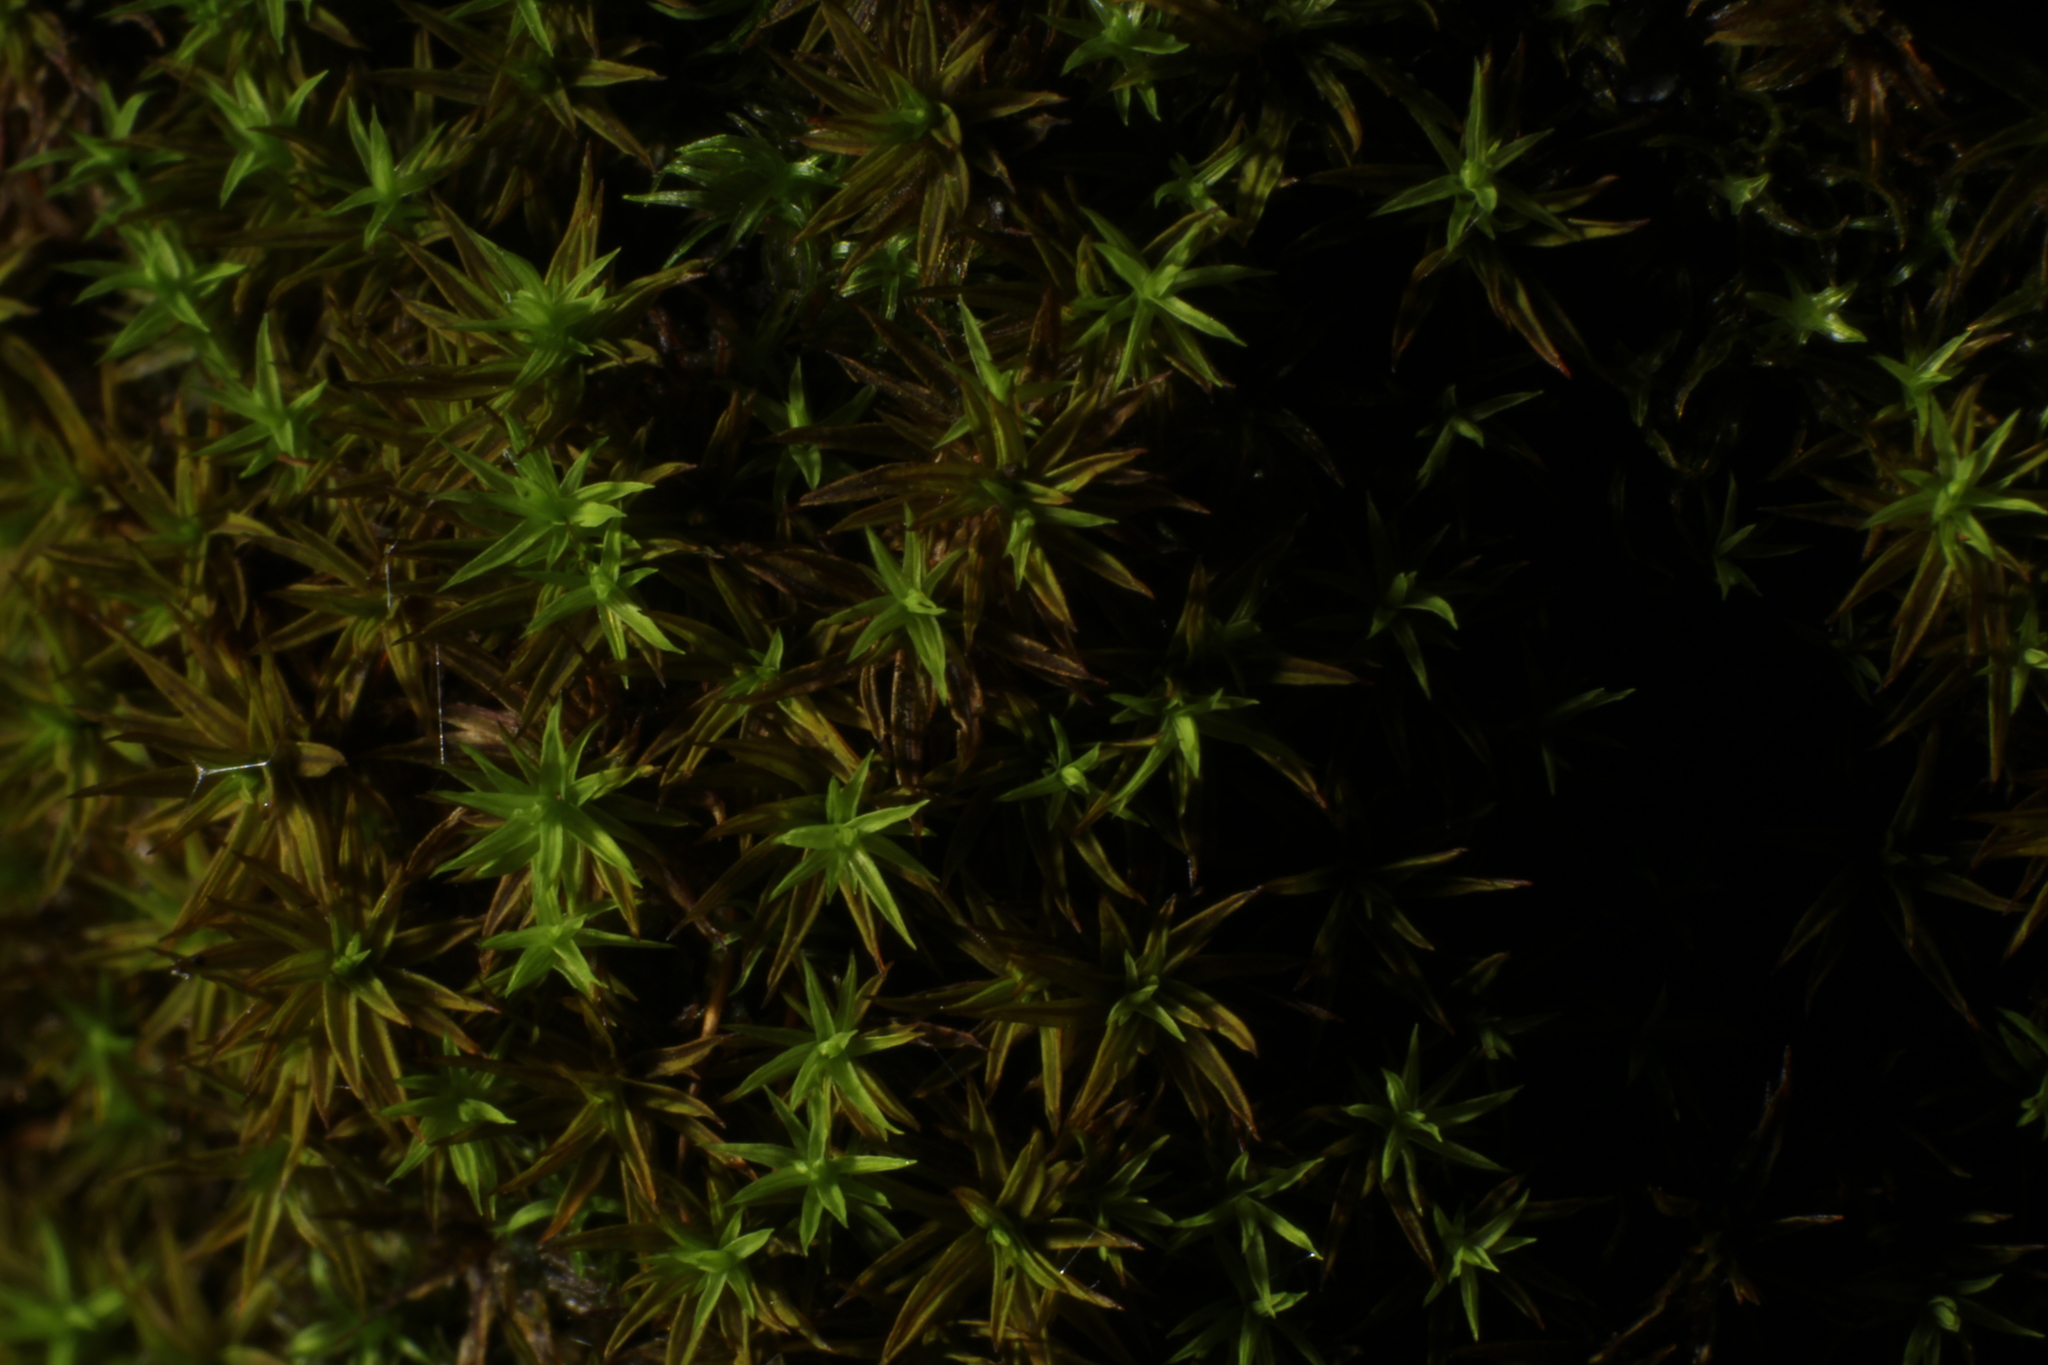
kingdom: Plantae
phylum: Bryophyta
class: Bryopsida
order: Pottiales
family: Pottiaceae
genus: Syntrichia
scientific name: Syntrichia ruralis
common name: Sidewalk screw moss
